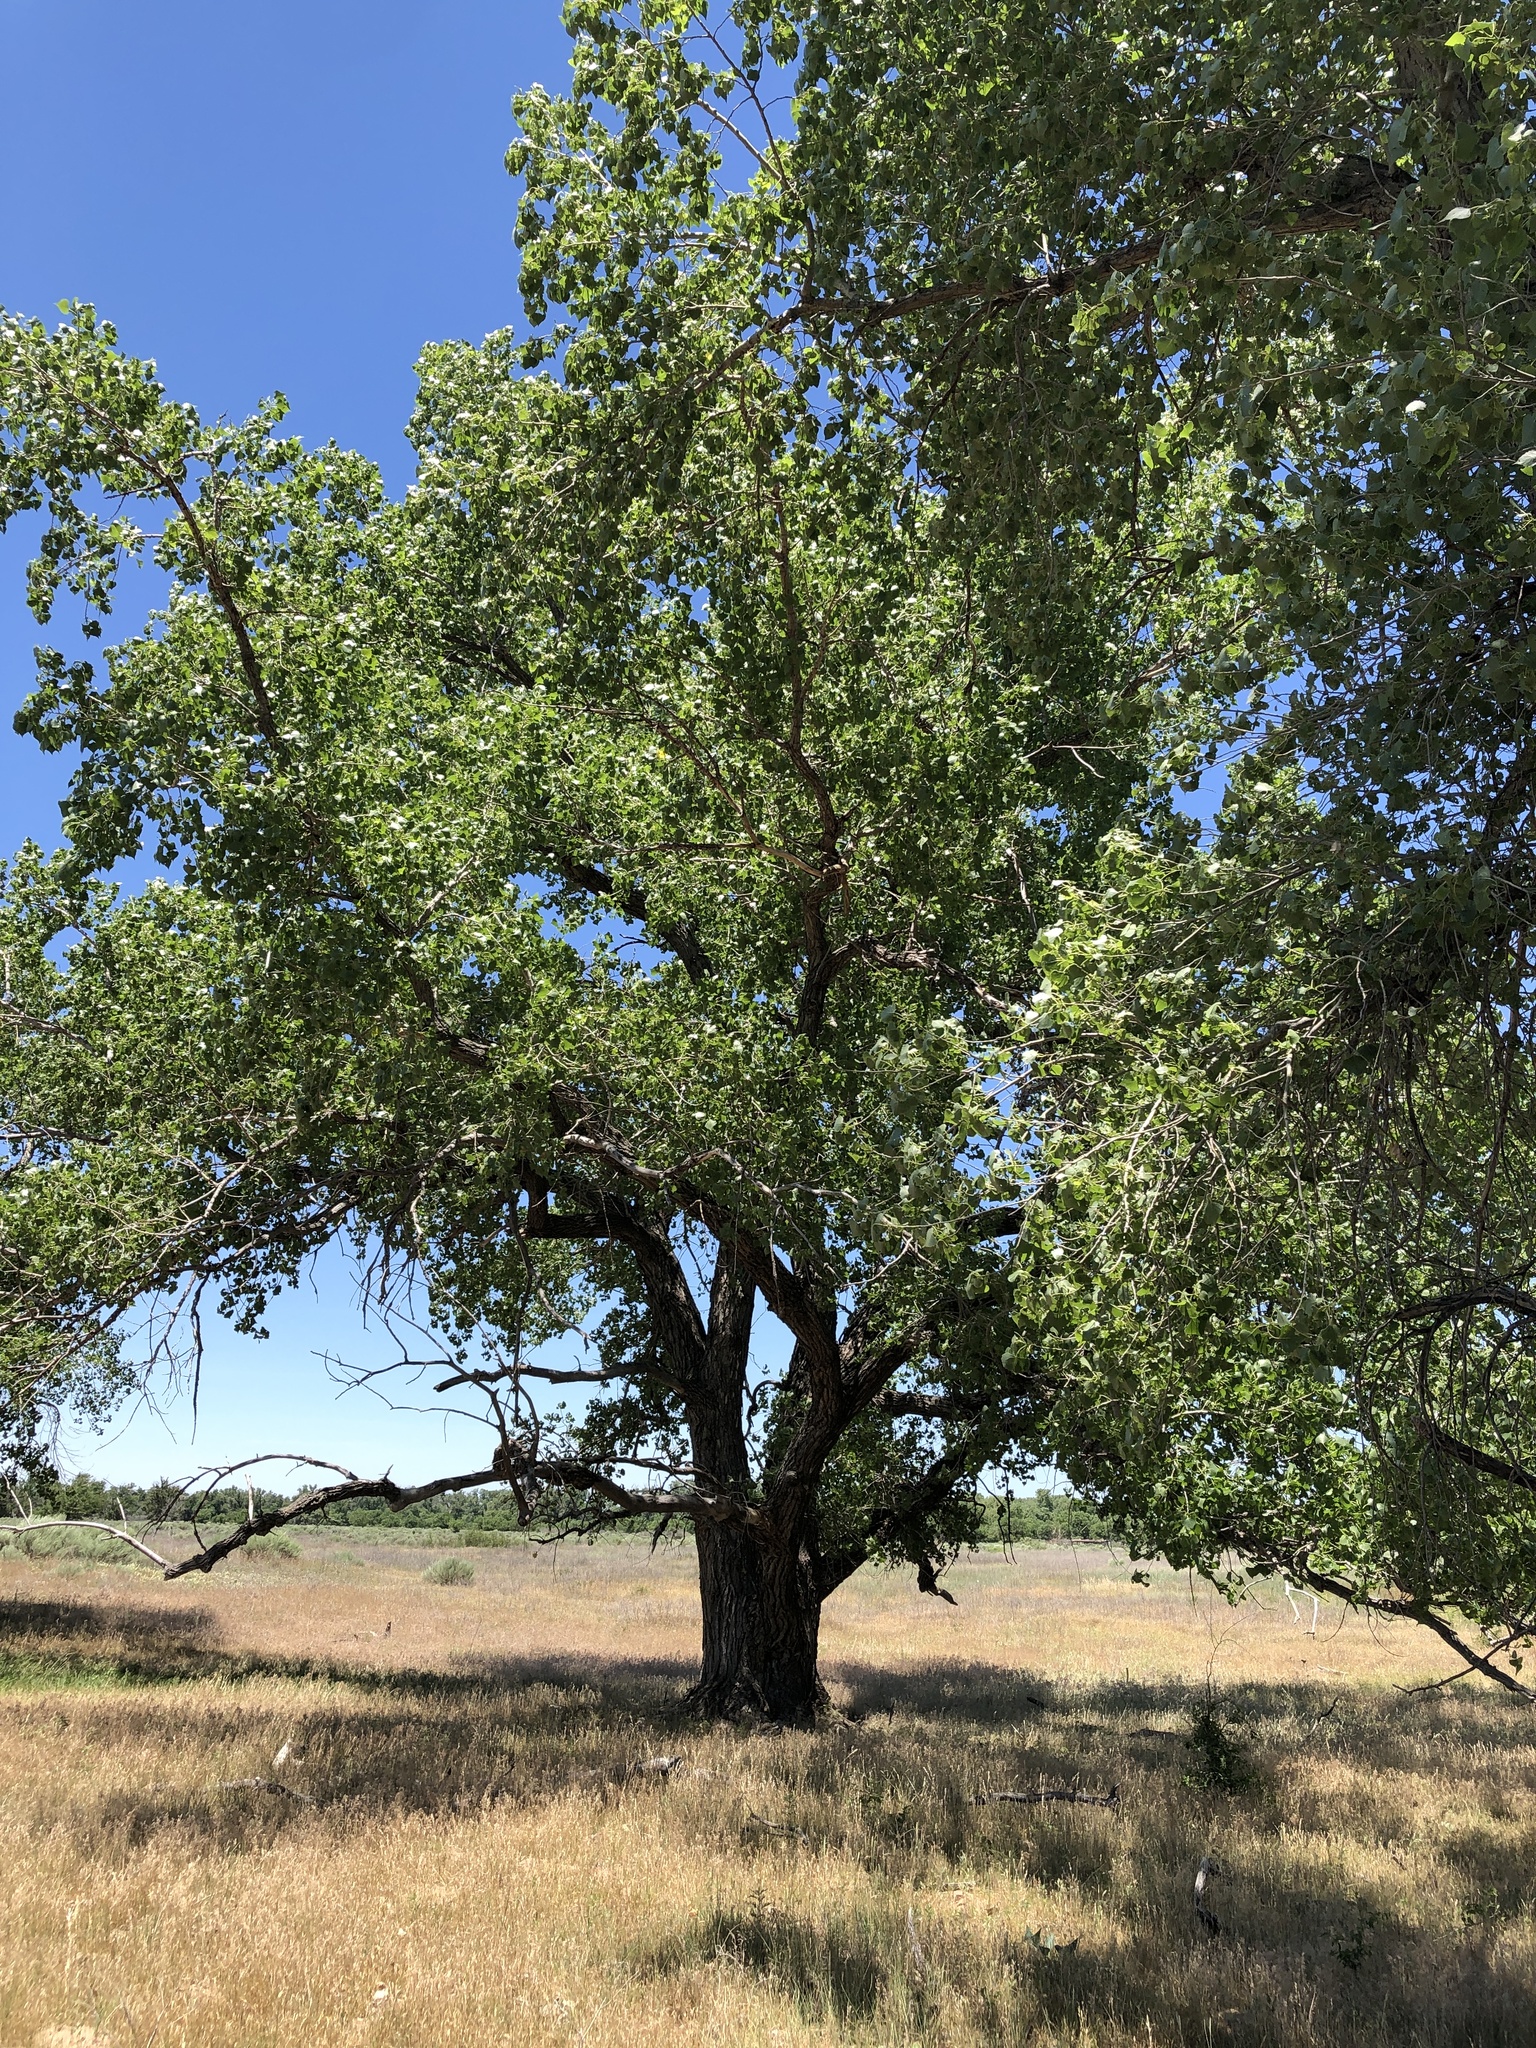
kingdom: Plantae
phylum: Tracheophyta
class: Magnoliopsida
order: Malpighiales
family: Salicaceae
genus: Populus
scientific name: Populus deltoides
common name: Eastern cottonwood
